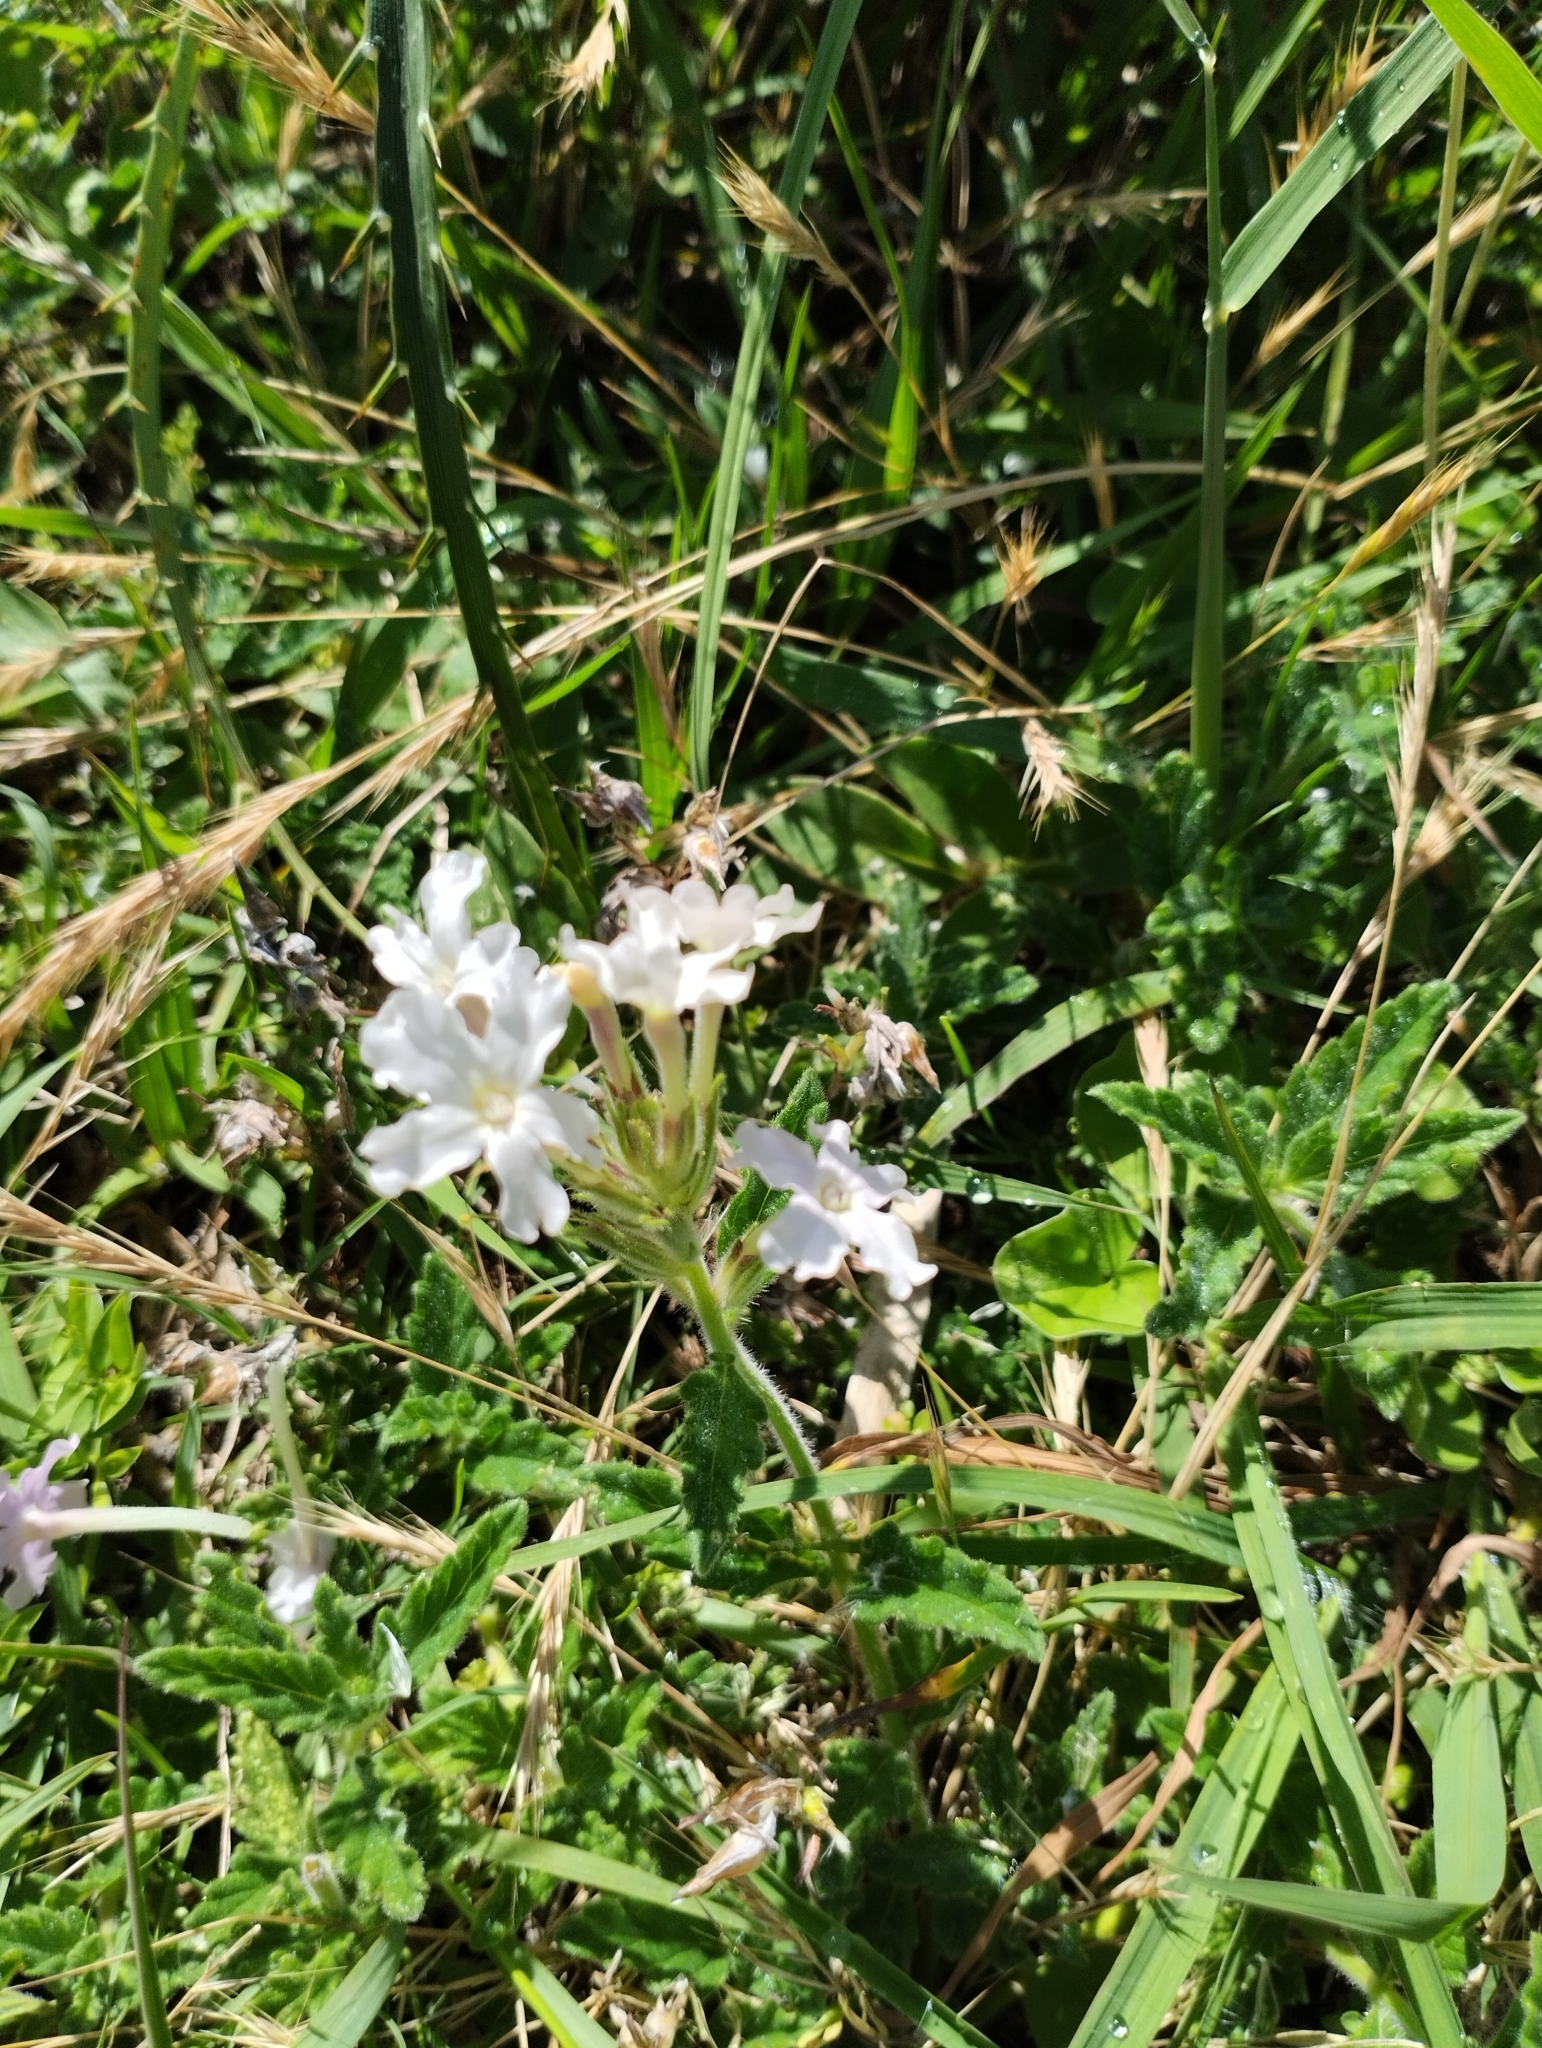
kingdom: Plantae
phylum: Tracheophyta
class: Magnoliopsida
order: Lamiales
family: Verbenaceae
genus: Verbena
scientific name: Verbena platensis
